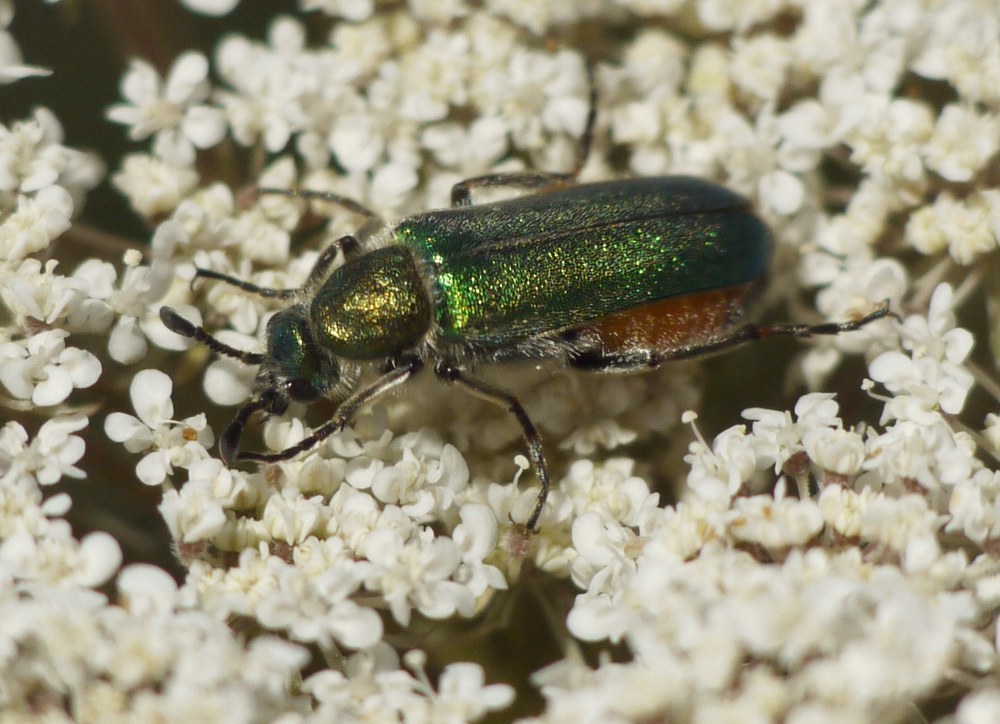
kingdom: Animalia
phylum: Arthropoda
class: Insecta
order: Coleoptera
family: Meloidae
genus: Cerocoma
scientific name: Cerocoma schreberi
